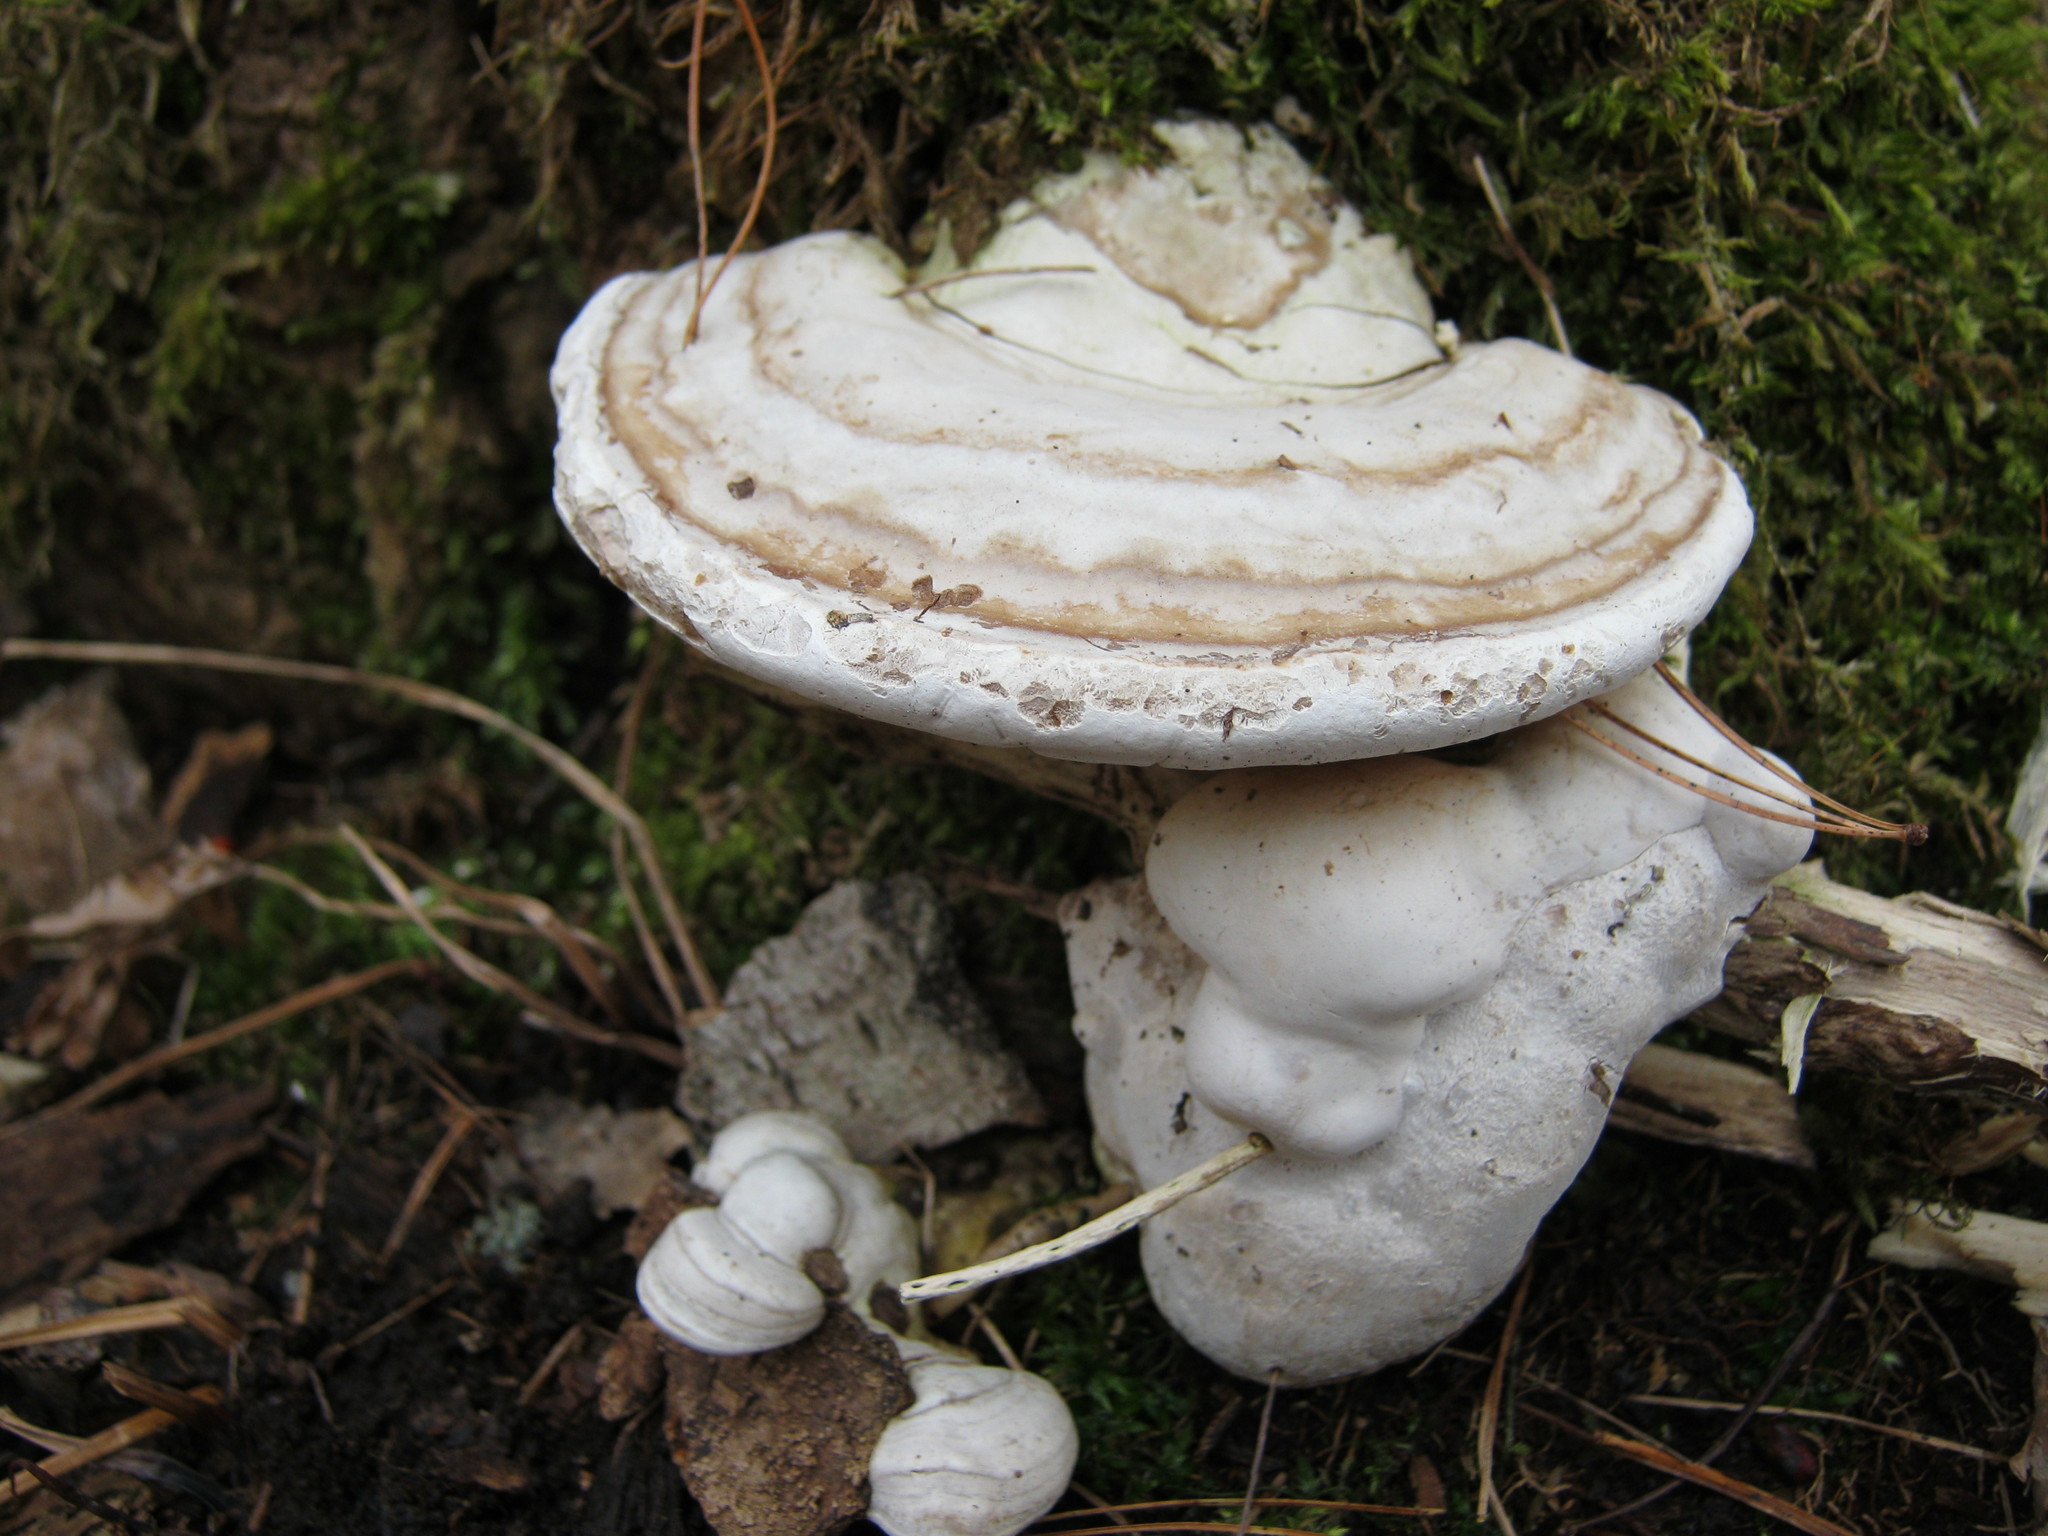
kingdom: Fungi
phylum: Basidiomycota
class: Agaricomycetes
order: Polyporales
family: Polyporaceae
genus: Ganoderma
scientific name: Ganoderma applanatum
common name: Artist's bracket
